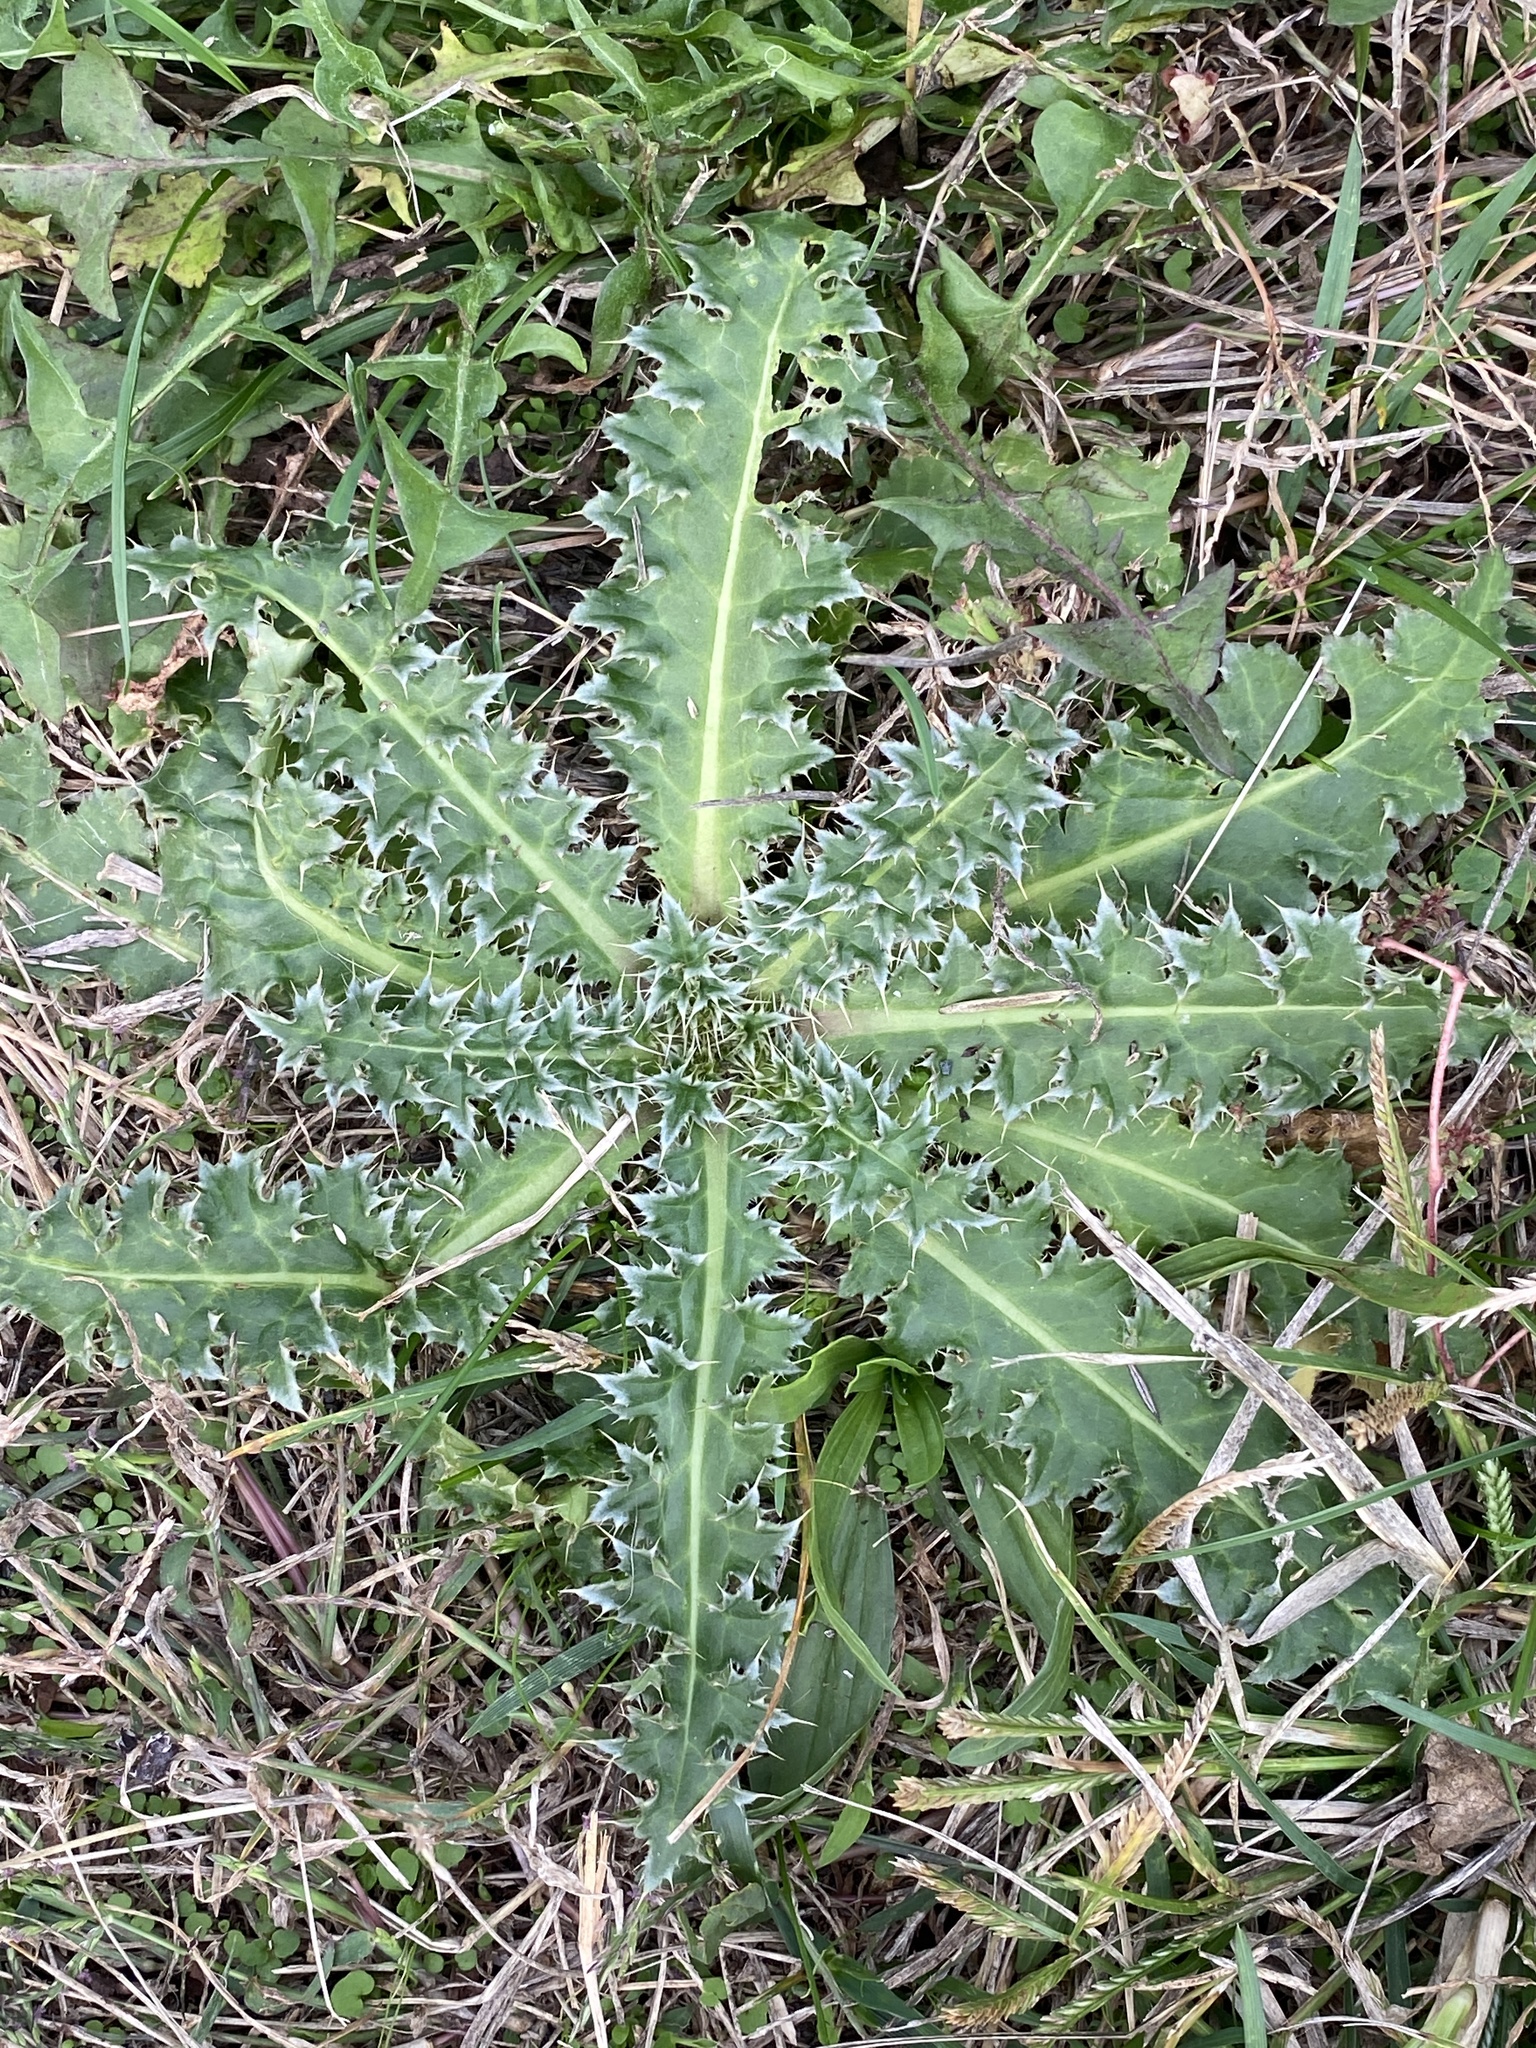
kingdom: Plantae
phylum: Tracheophyta
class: Magnoliopsida
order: Asterales
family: Asteraceae
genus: Carduus
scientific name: Carduus nutans
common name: Musk thistle
